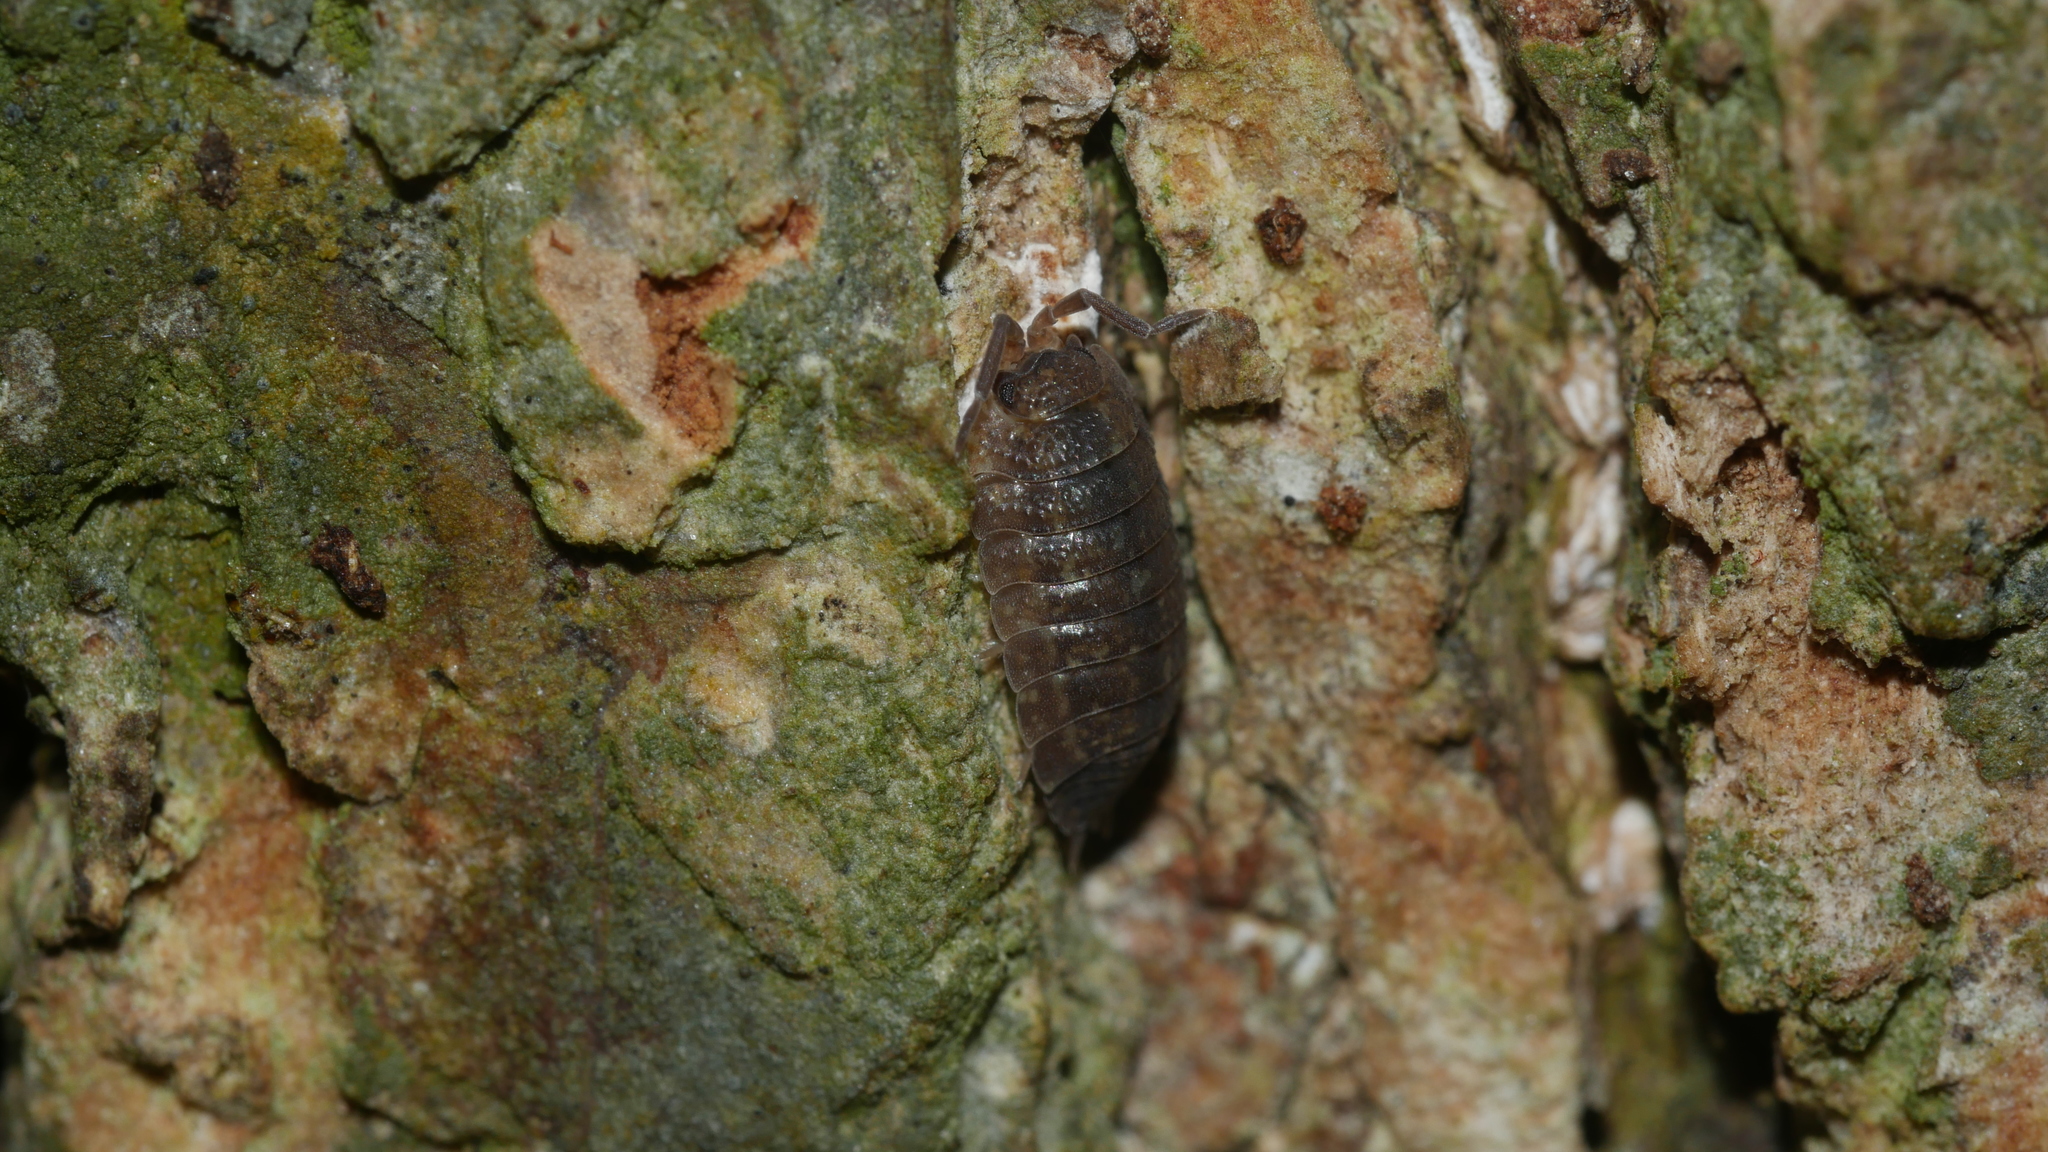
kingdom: Animalia
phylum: Arthropoda
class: Malacostraca
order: Isopoda
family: Porcellionidae
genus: Porcellio
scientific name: Porcellio scaber
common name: Common rough woodlouse
